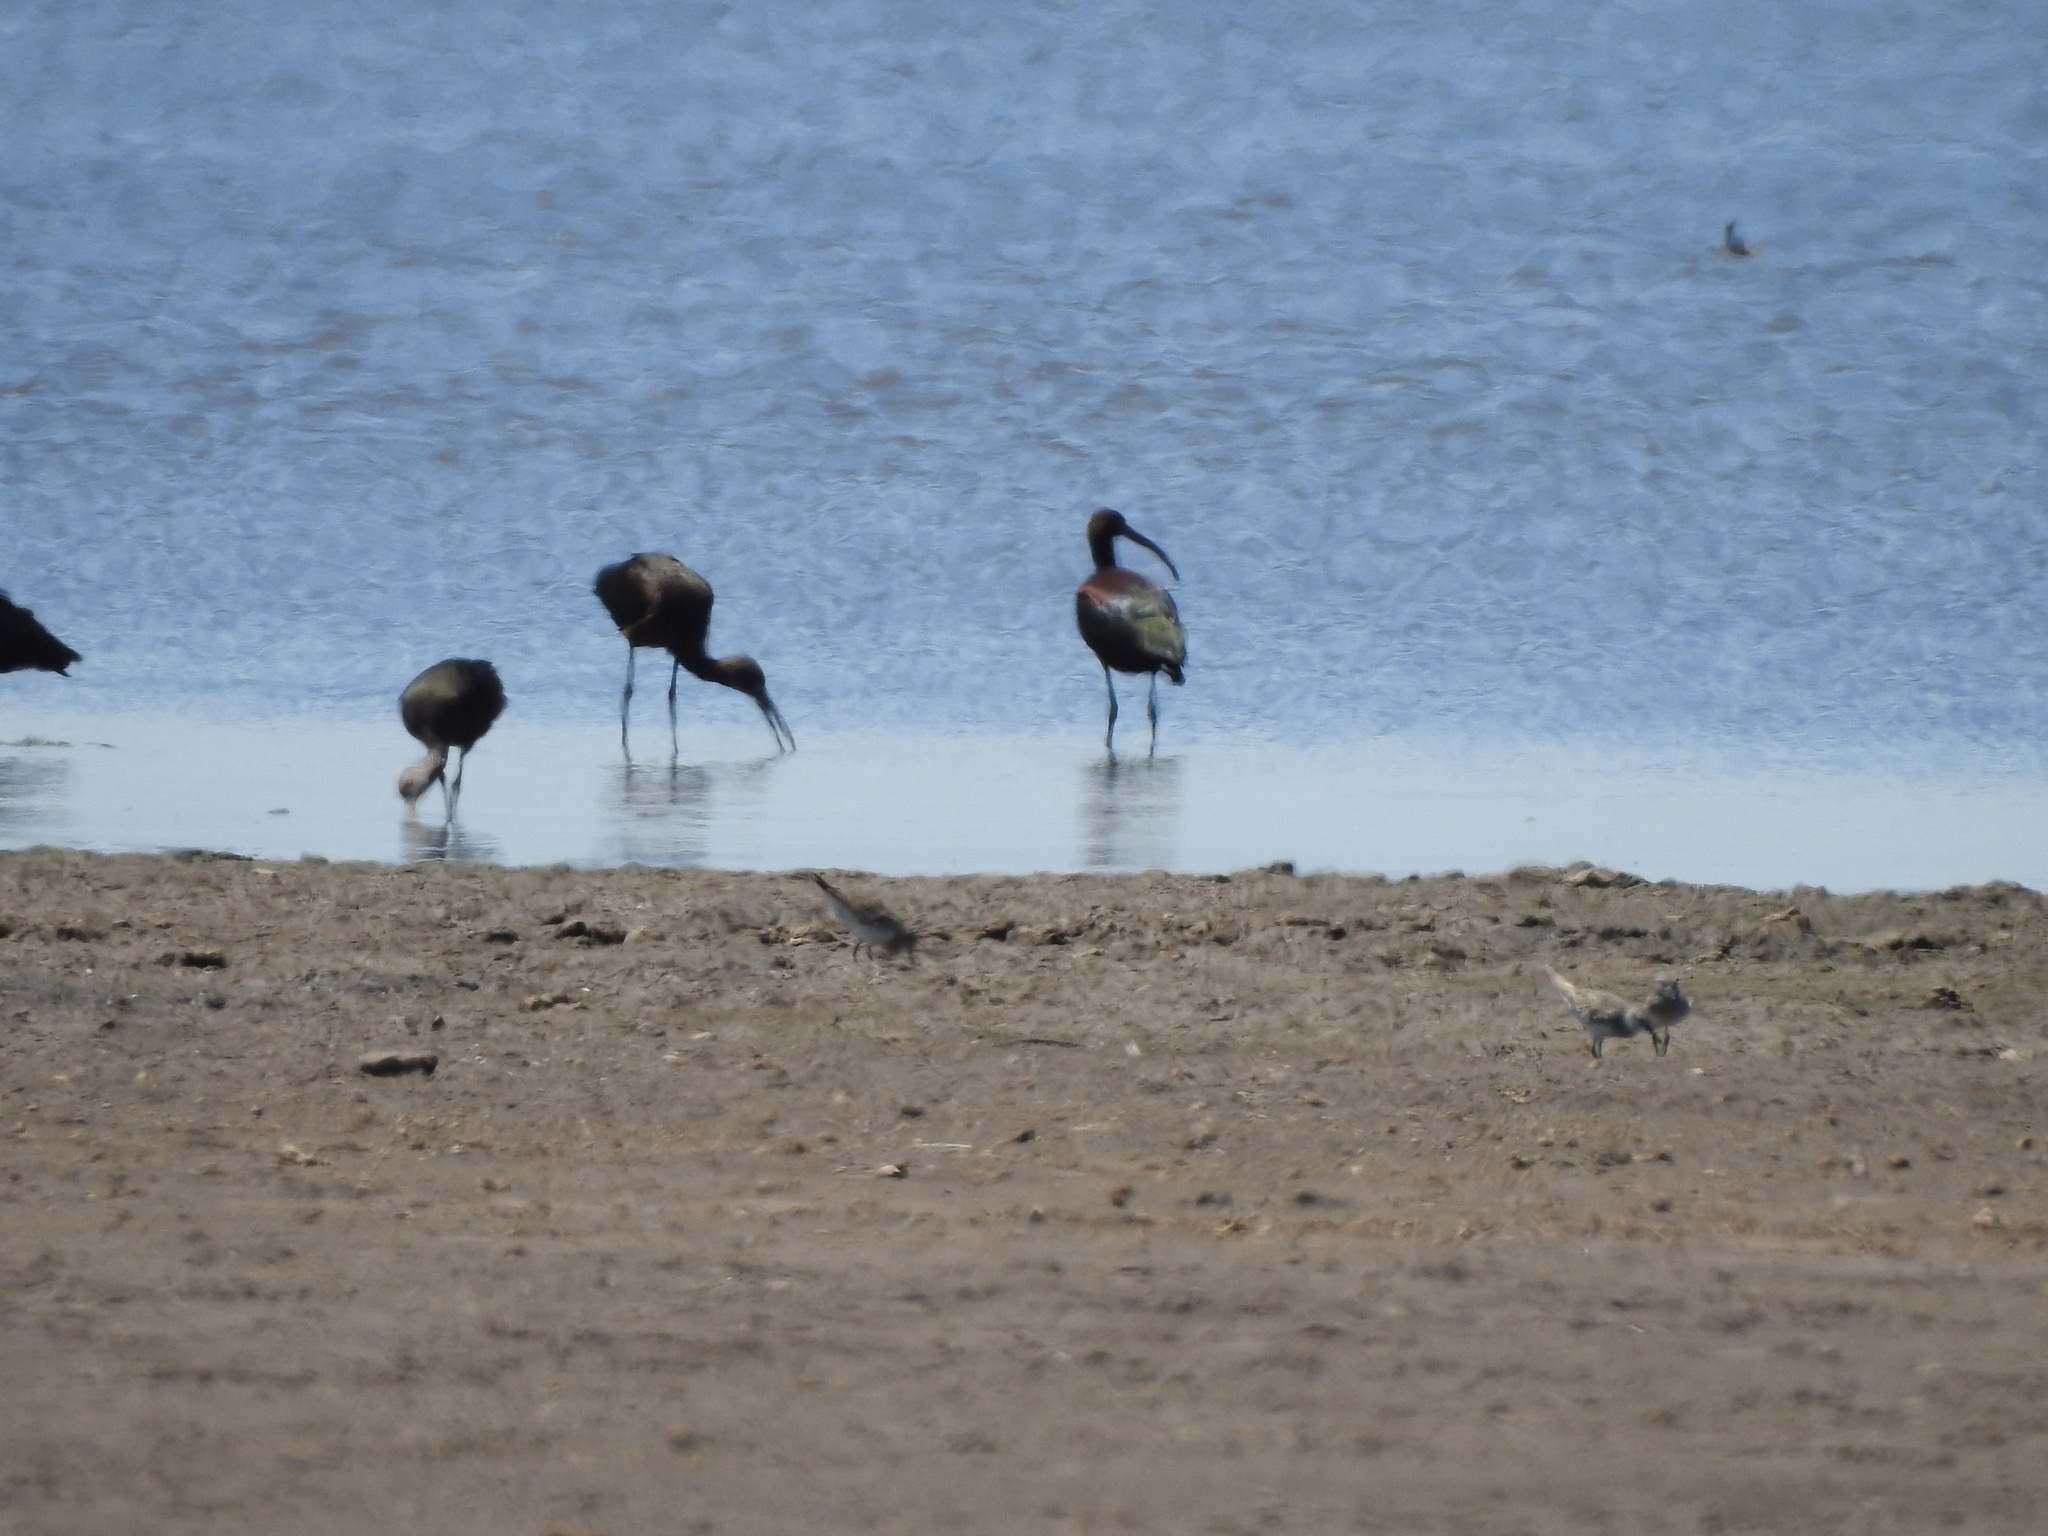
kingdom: Animalia
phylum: Chordata
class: Aves
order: Pelecaniformes
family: Threskiornithidae
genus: Plegadis
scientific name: Plegadis chihi
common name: White-faced ibis
